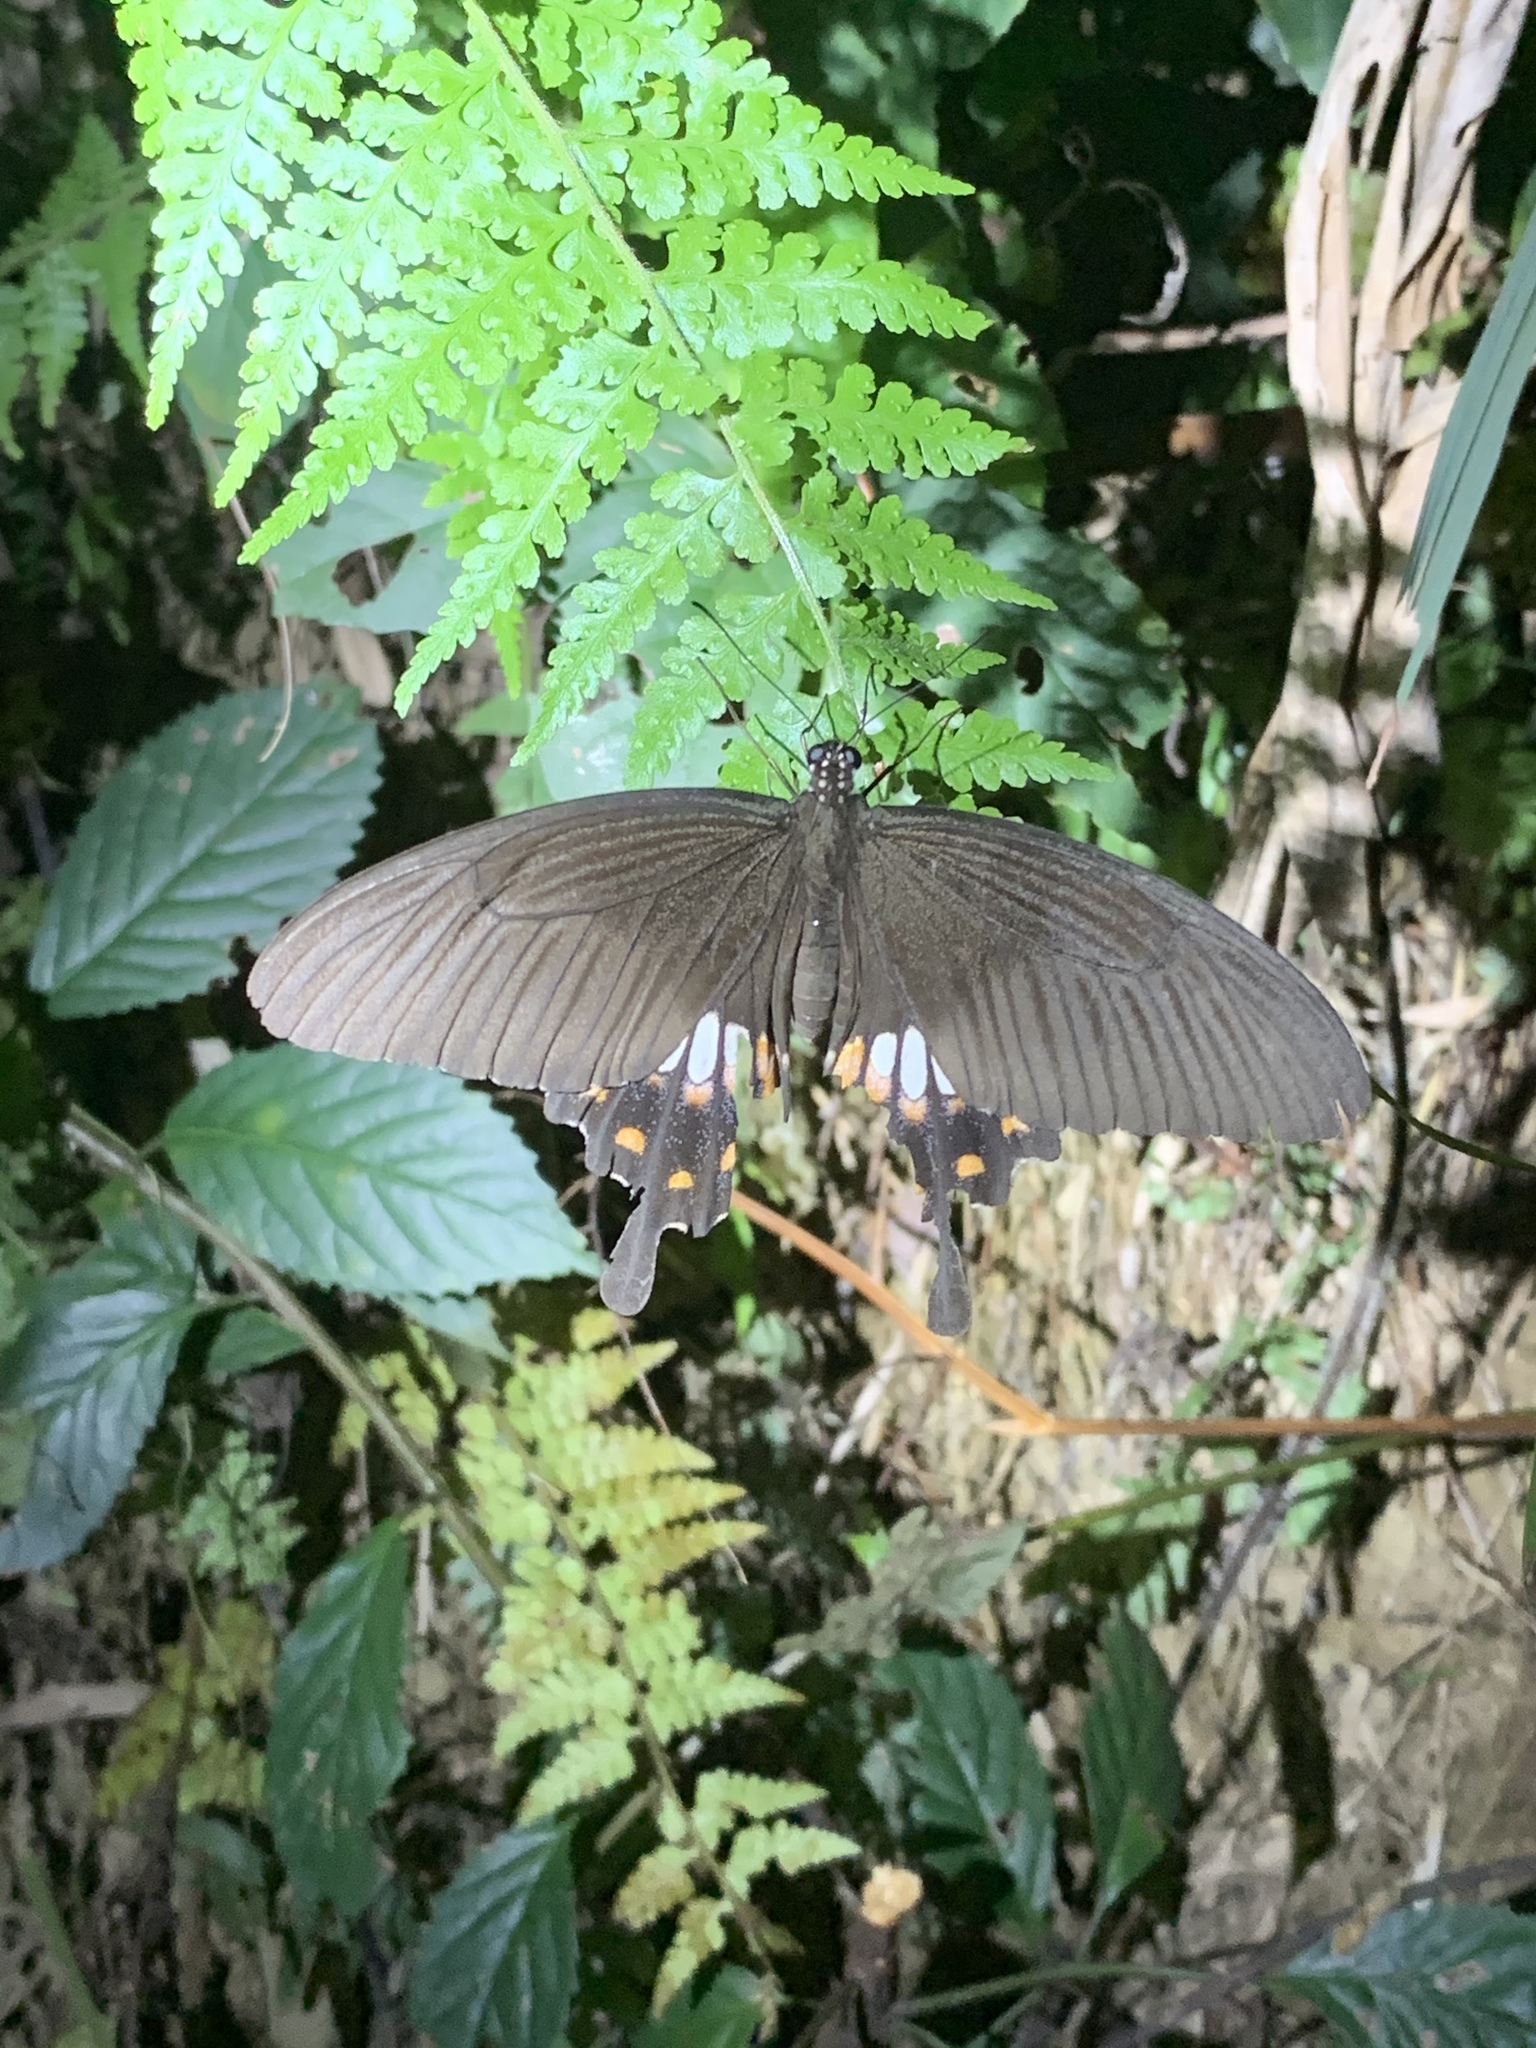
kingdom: Animalia
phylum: Arthropoda
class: Insecta
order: Lepidoptera
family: Papilionidae
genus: Papilio
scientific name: Papilio polytes
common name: Common mormon
